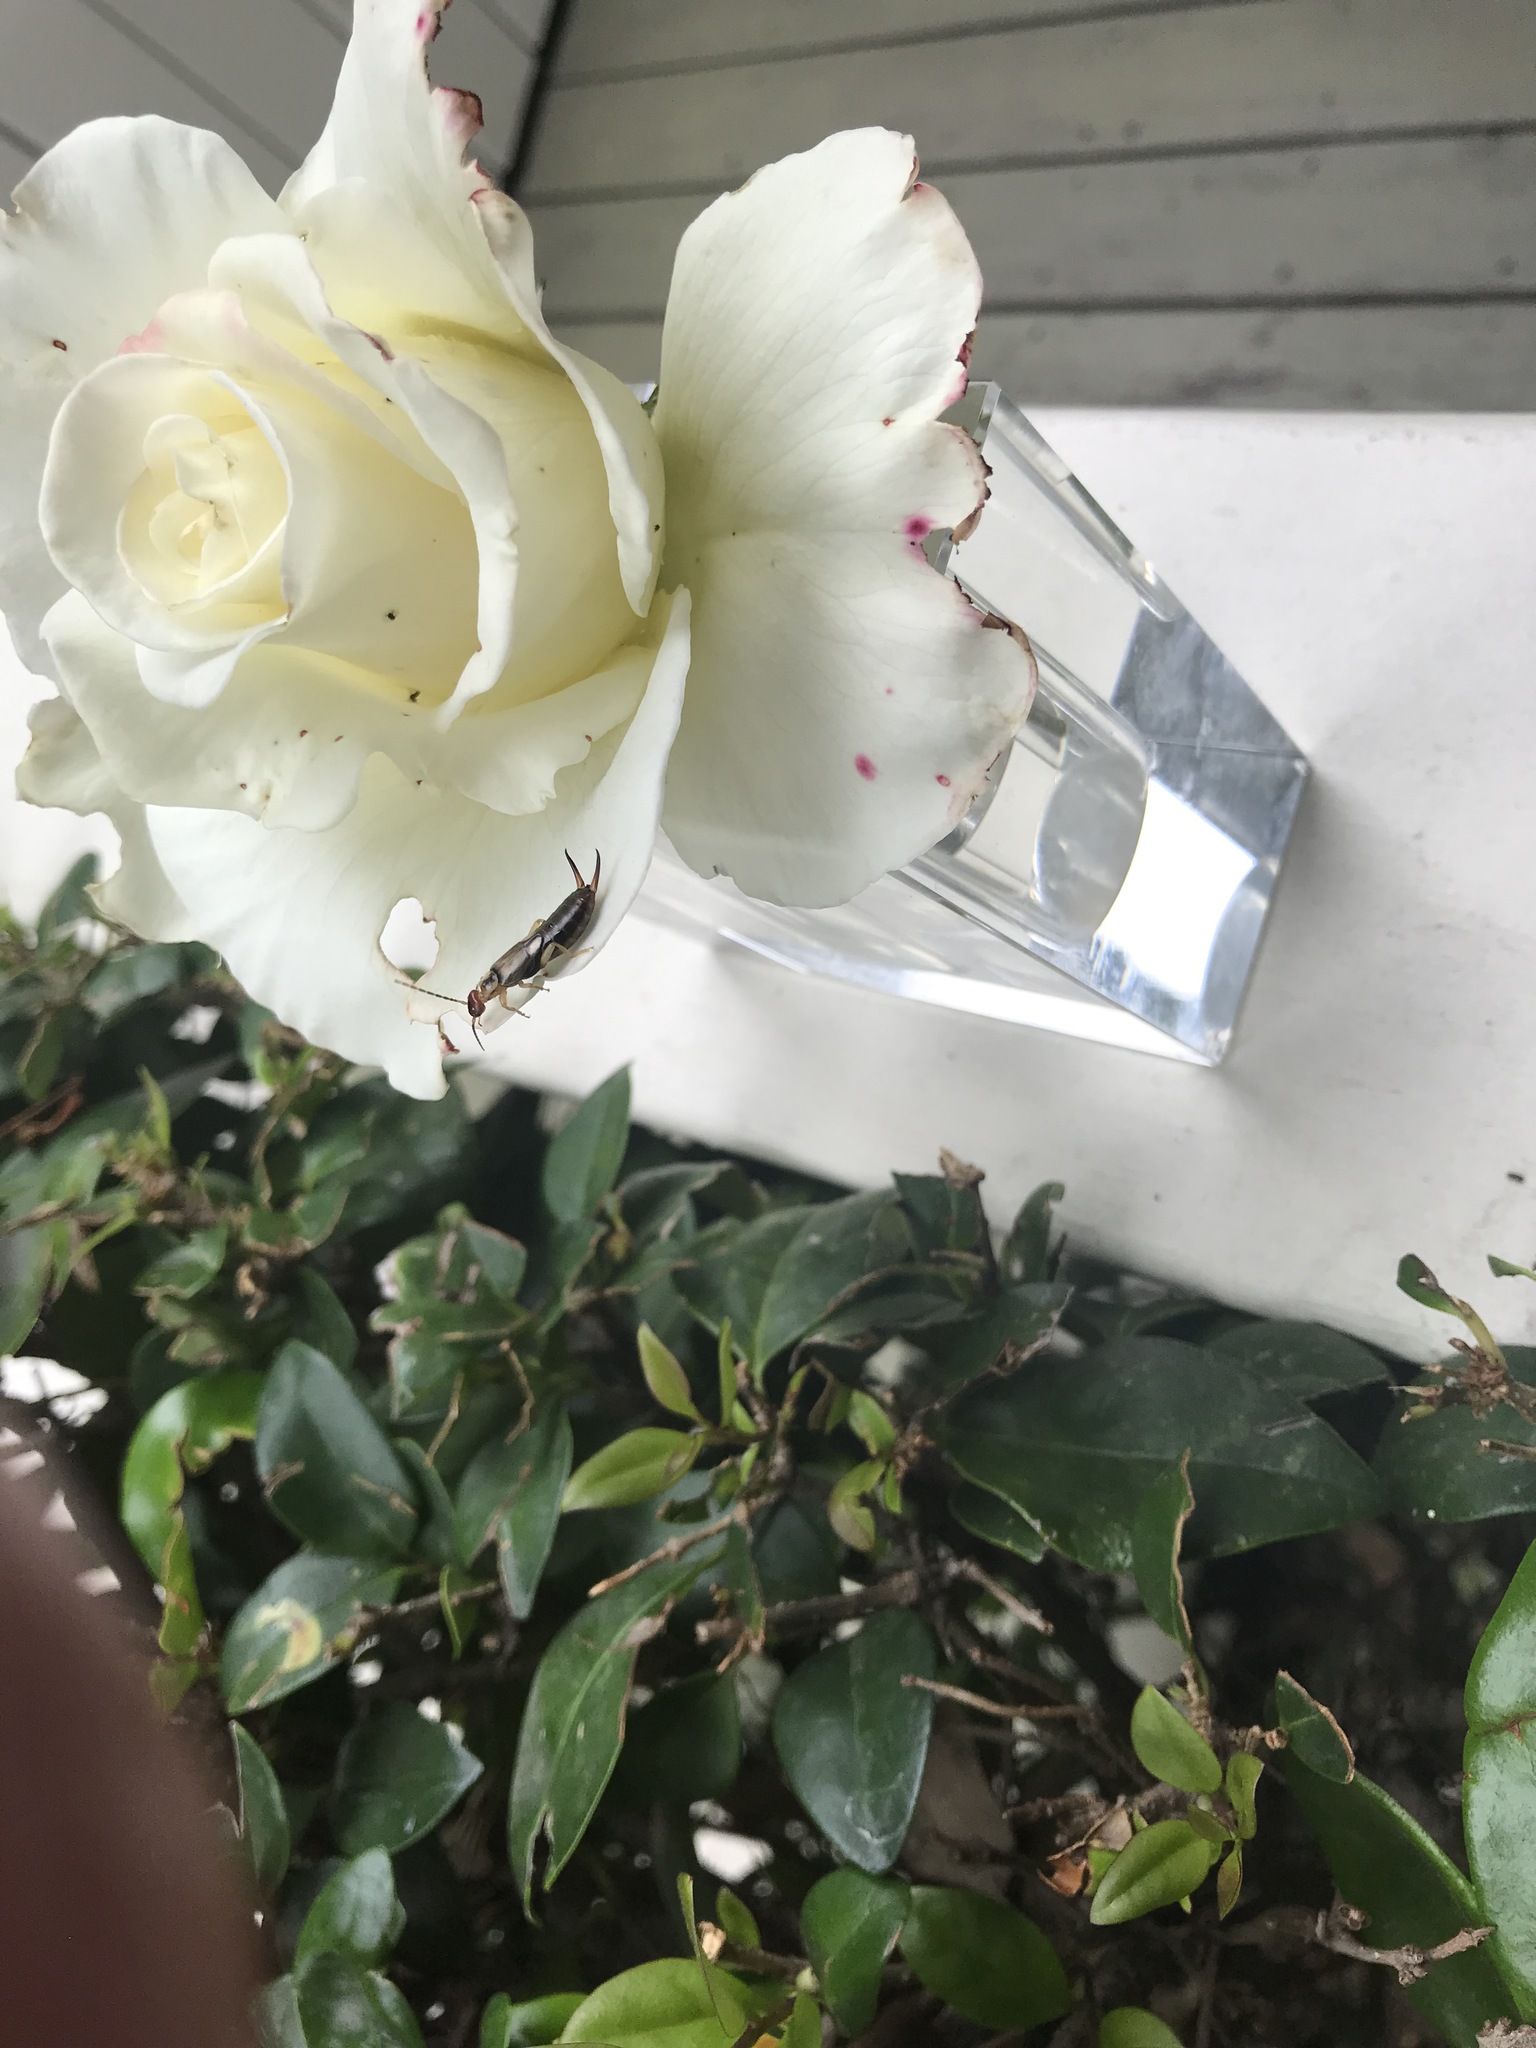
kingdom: Animalia
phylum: Arthropoda
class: Insecta
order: Dermaptera
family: Forficulidae
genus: Forficula
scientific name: Forficula
